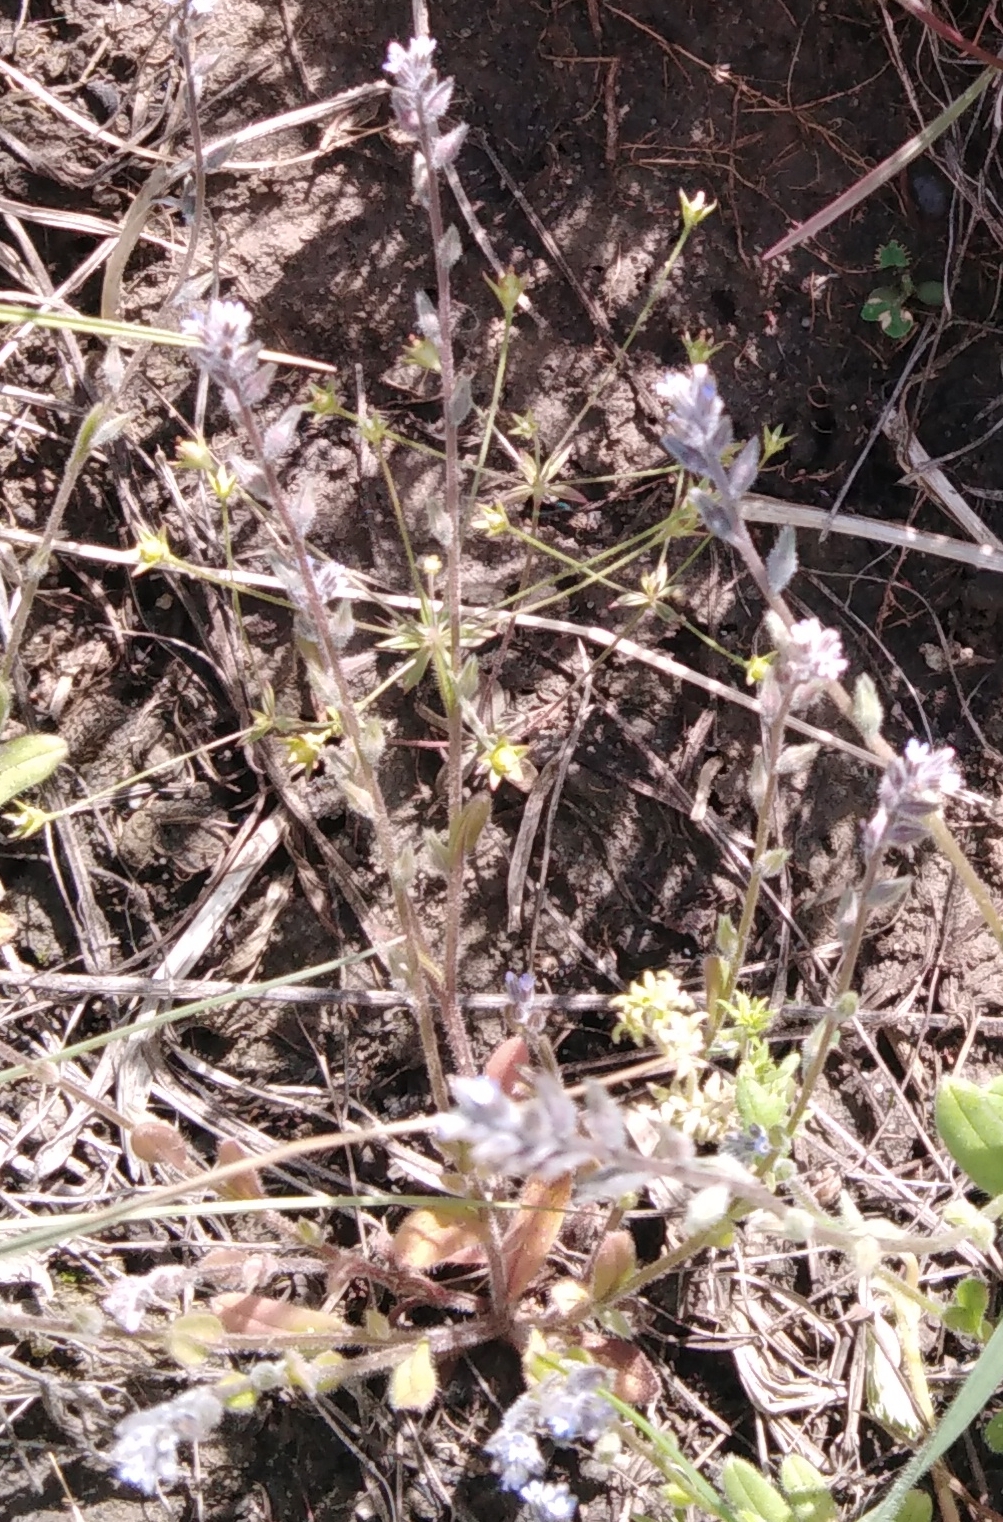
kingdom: Plantae
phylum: Tracheophyta
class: Magnoliopsida
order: Boraginales
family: Boraginaceae
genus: Myosotis
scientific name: Myosotis stricta
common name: Strict forget-me-not
